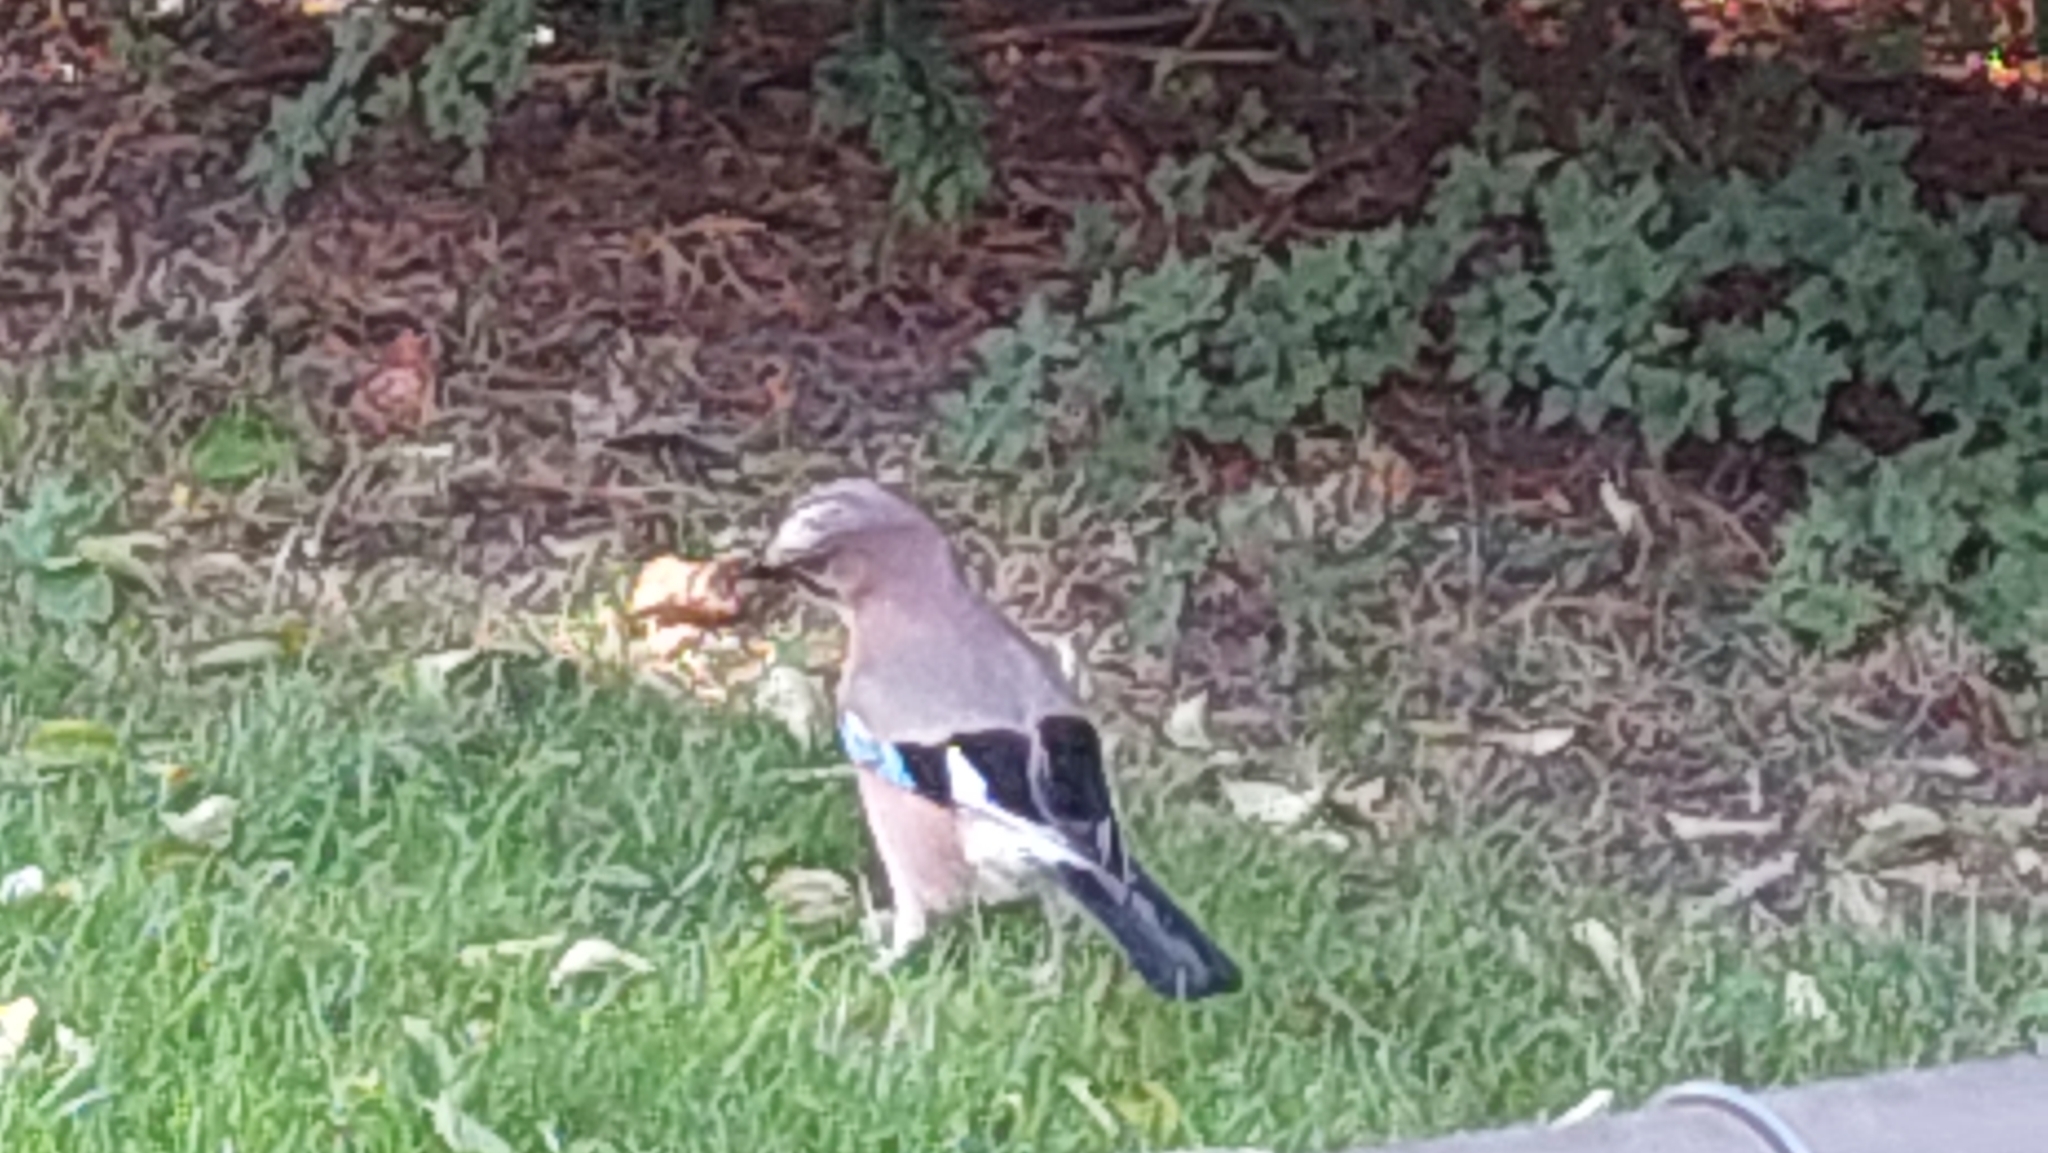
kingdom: Animalia
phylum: Chordata
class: Aves
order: Passeriformes
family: Corvidae
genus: Garrulus
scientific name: Garrulus glandarius
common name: Eurasian jay
